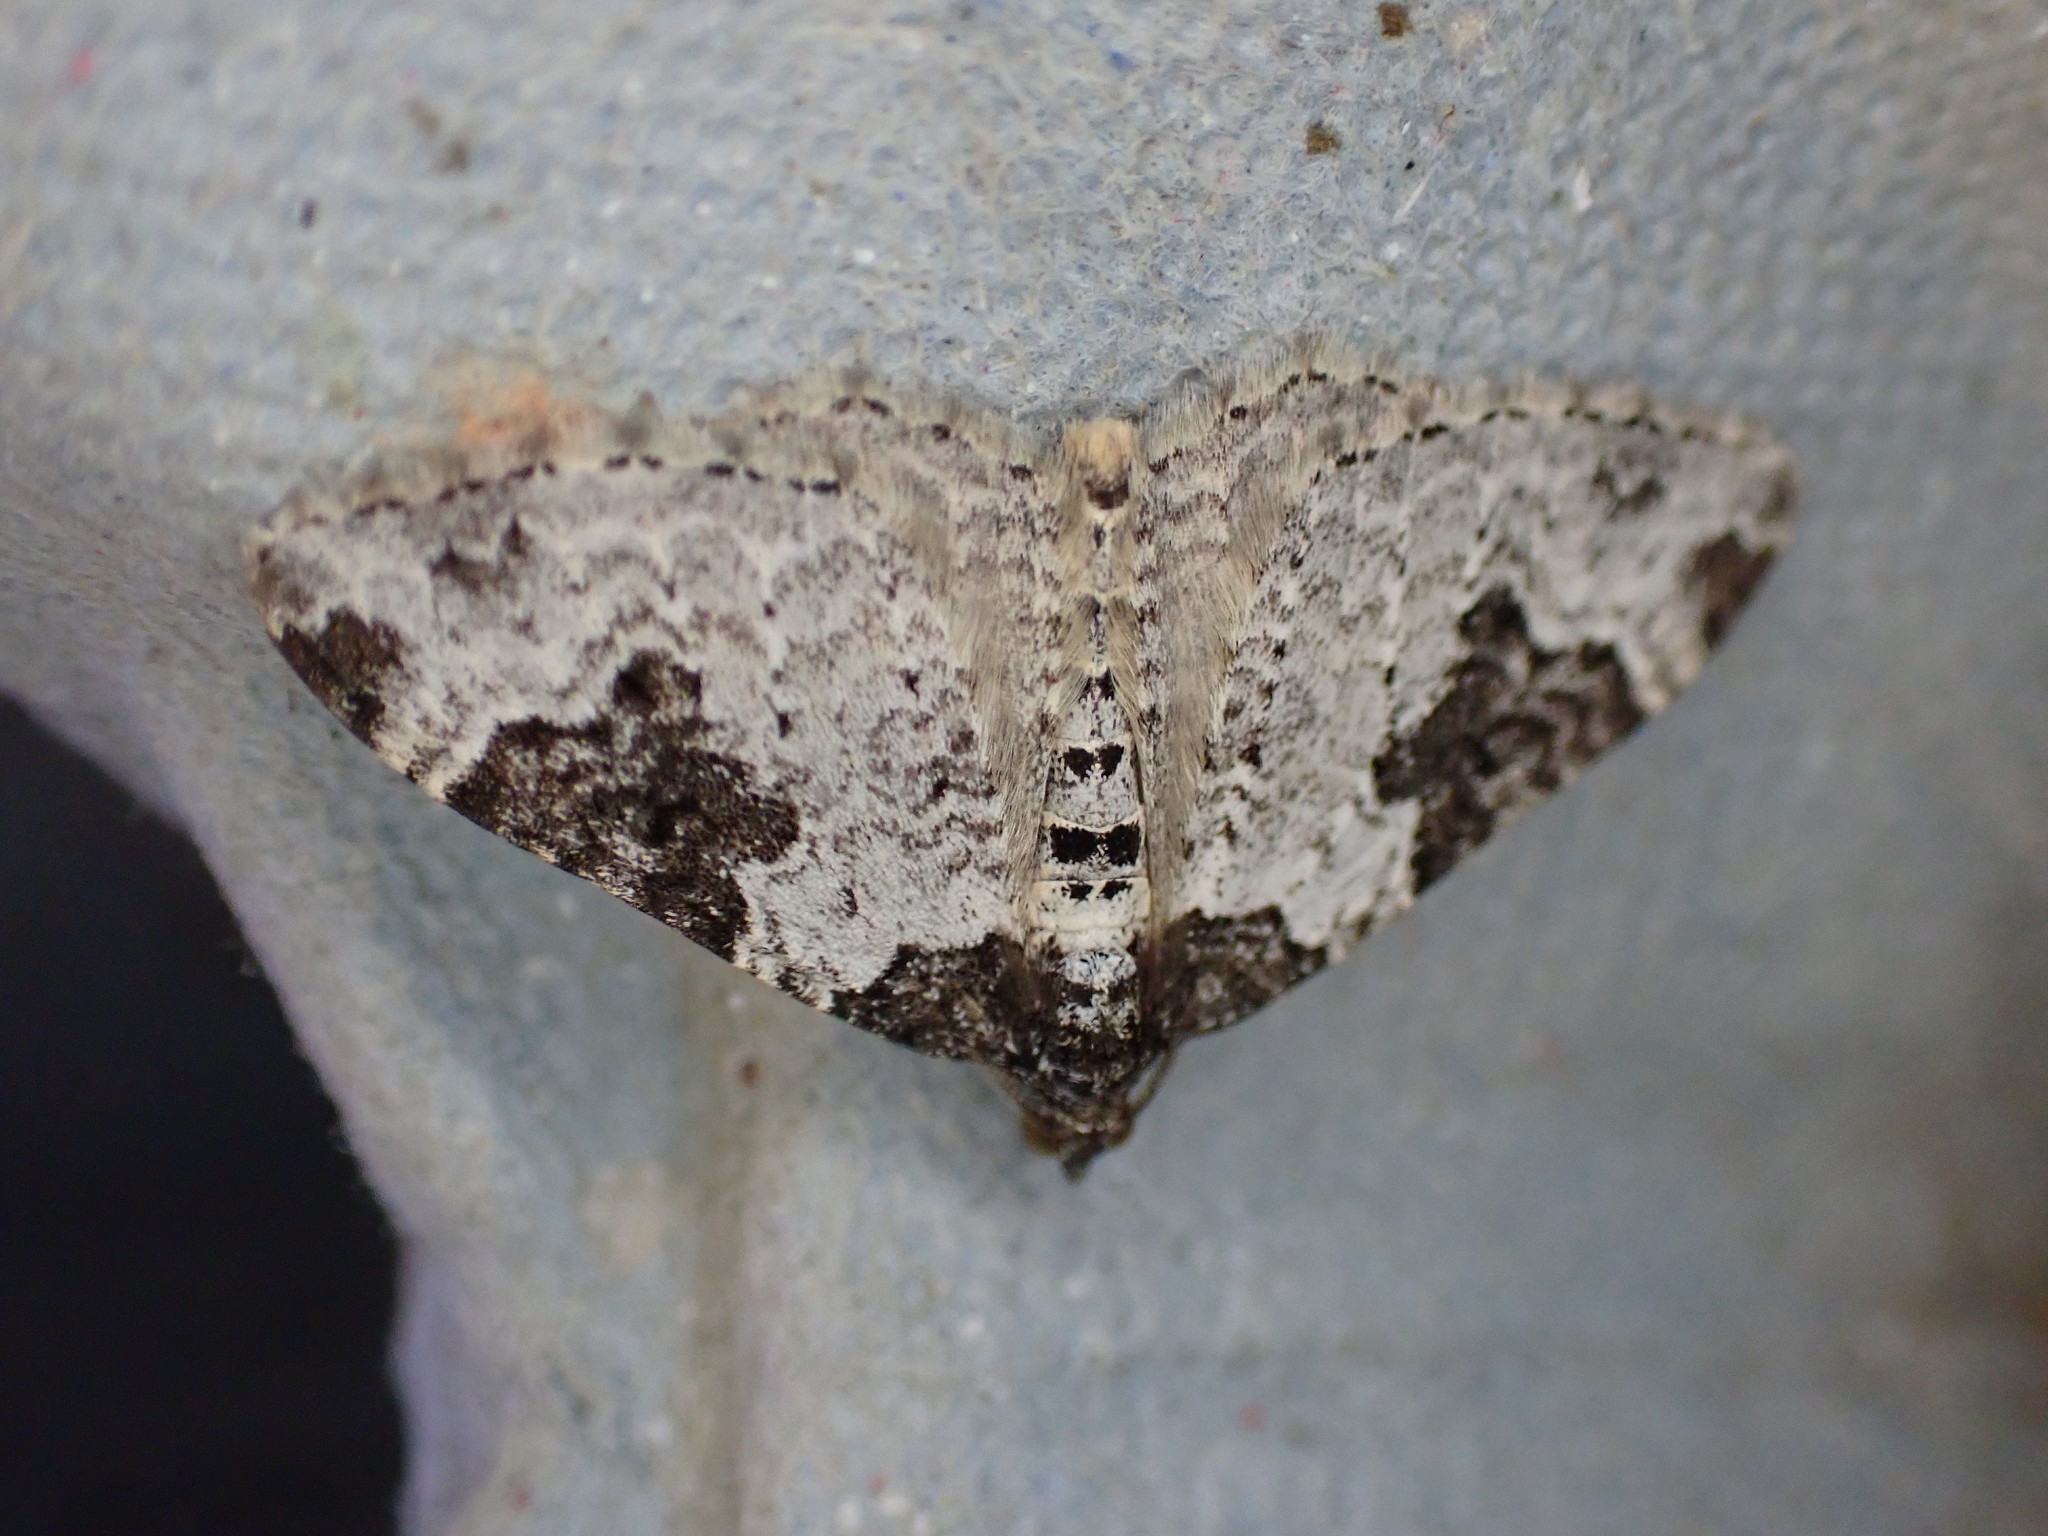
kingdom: Animalia
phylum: Arthropoda
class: Insecta
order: Lepidoptera
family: Geometridae
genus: Xanthorhoe
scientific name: Xanthorhoe fluctuata
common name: Garden carpet
